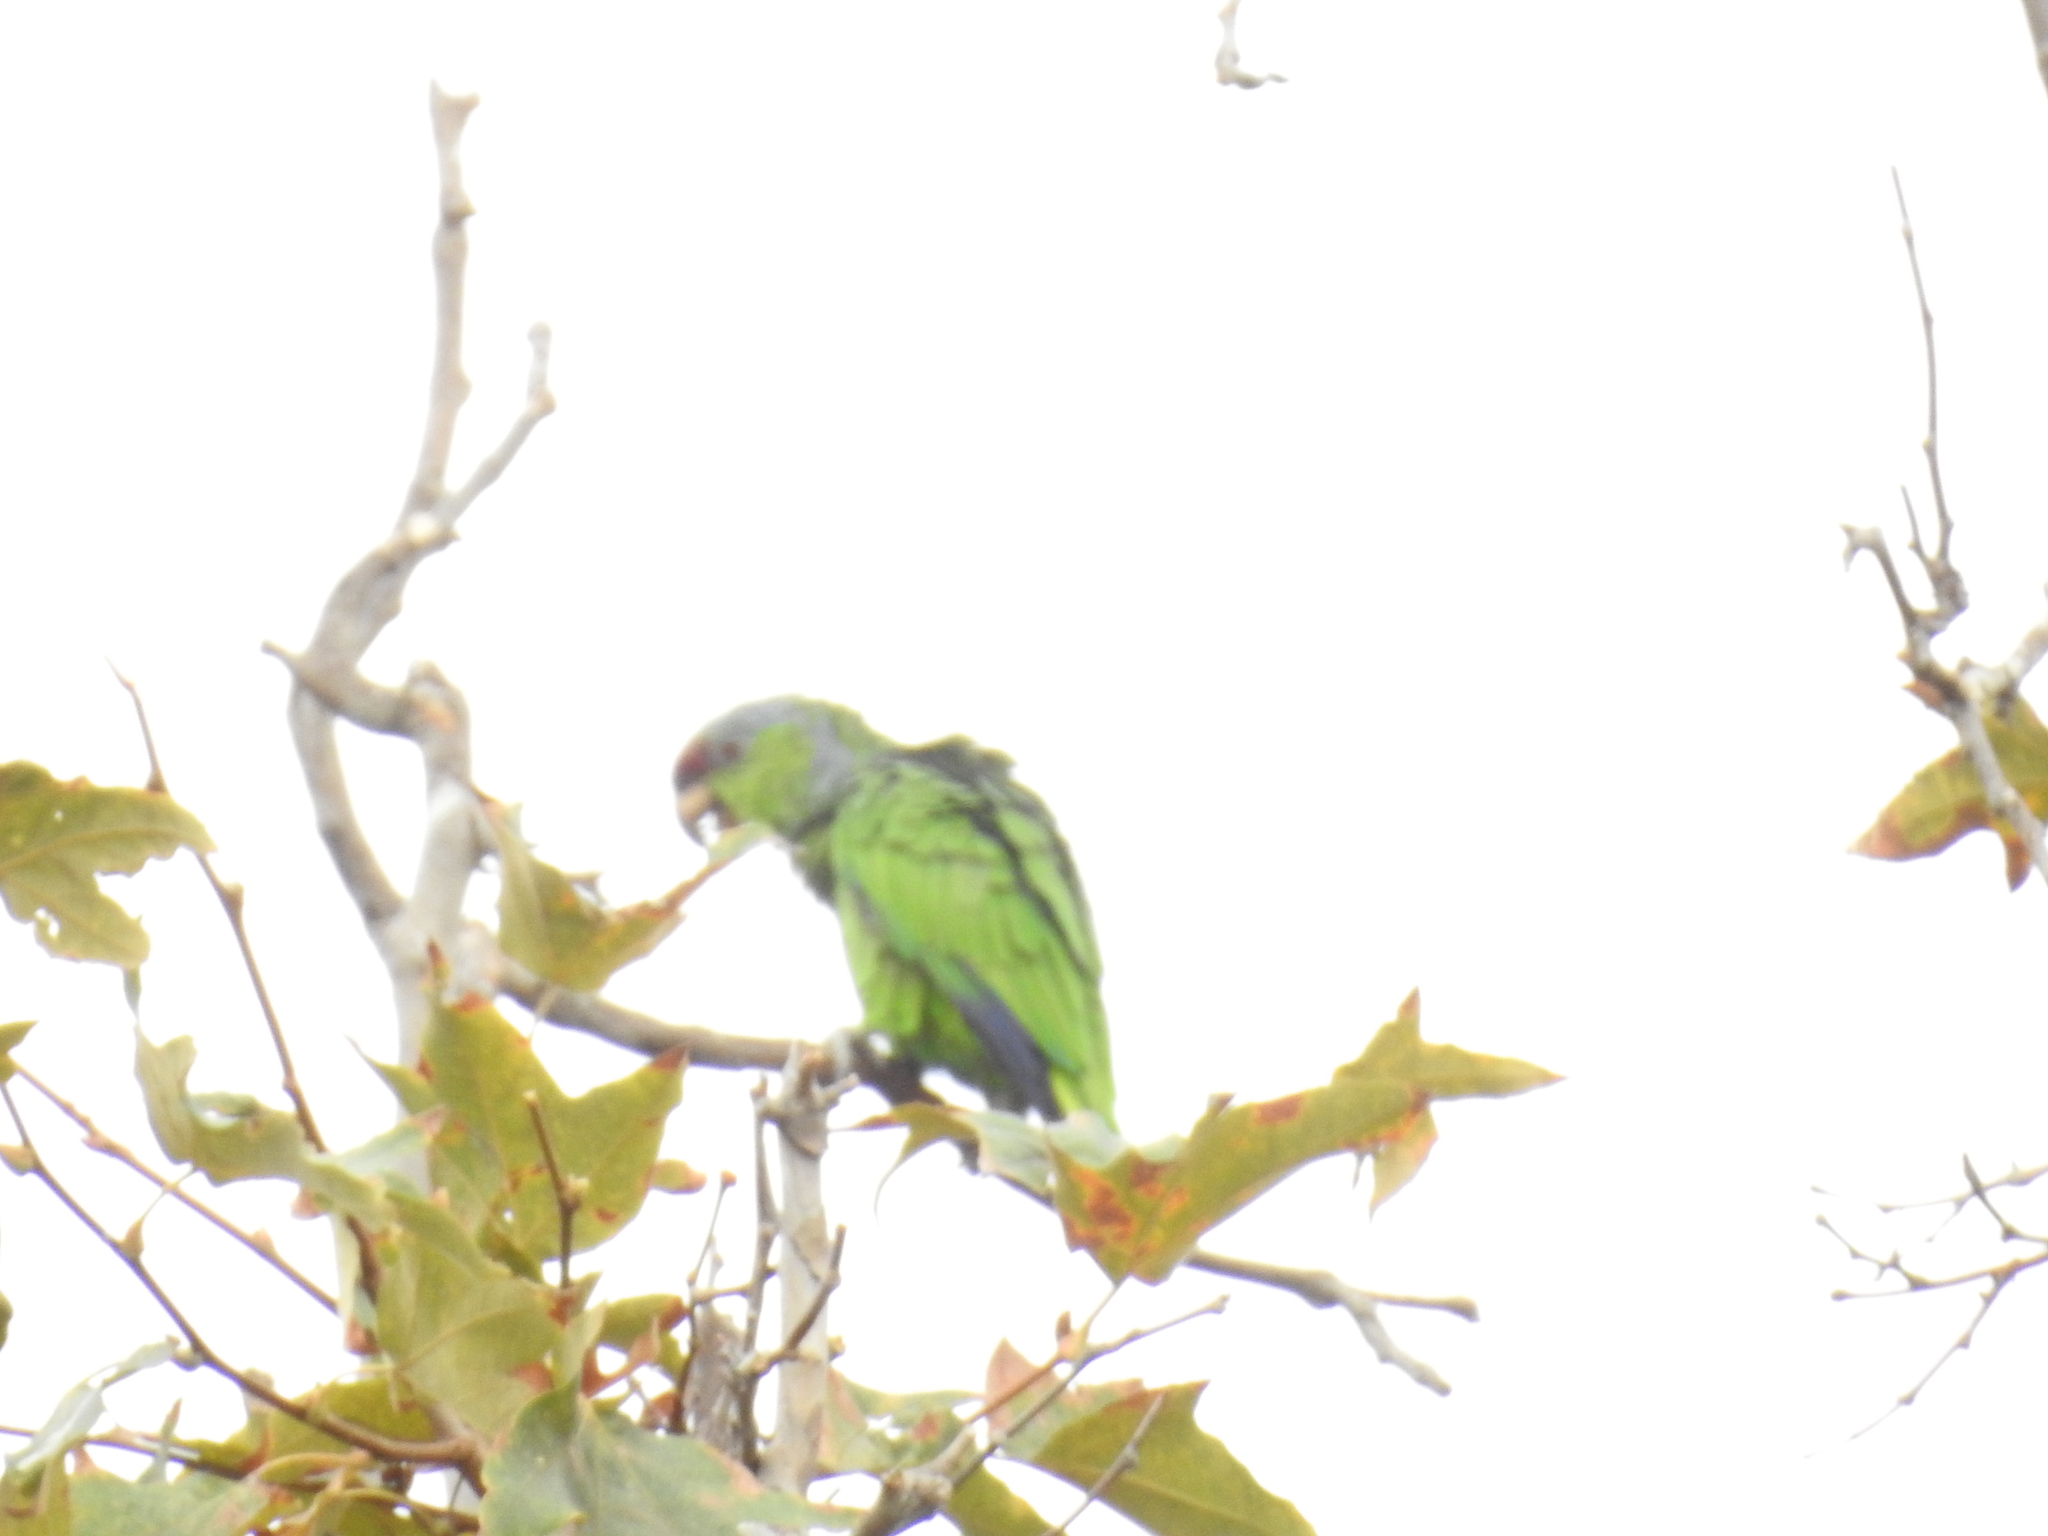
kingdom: Animalia
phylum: Chordata
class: Aves
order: Psittaciformes
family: Psittacidae
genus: Amazona
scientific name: Amazona finschi
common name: Lilac-crowned amazon
